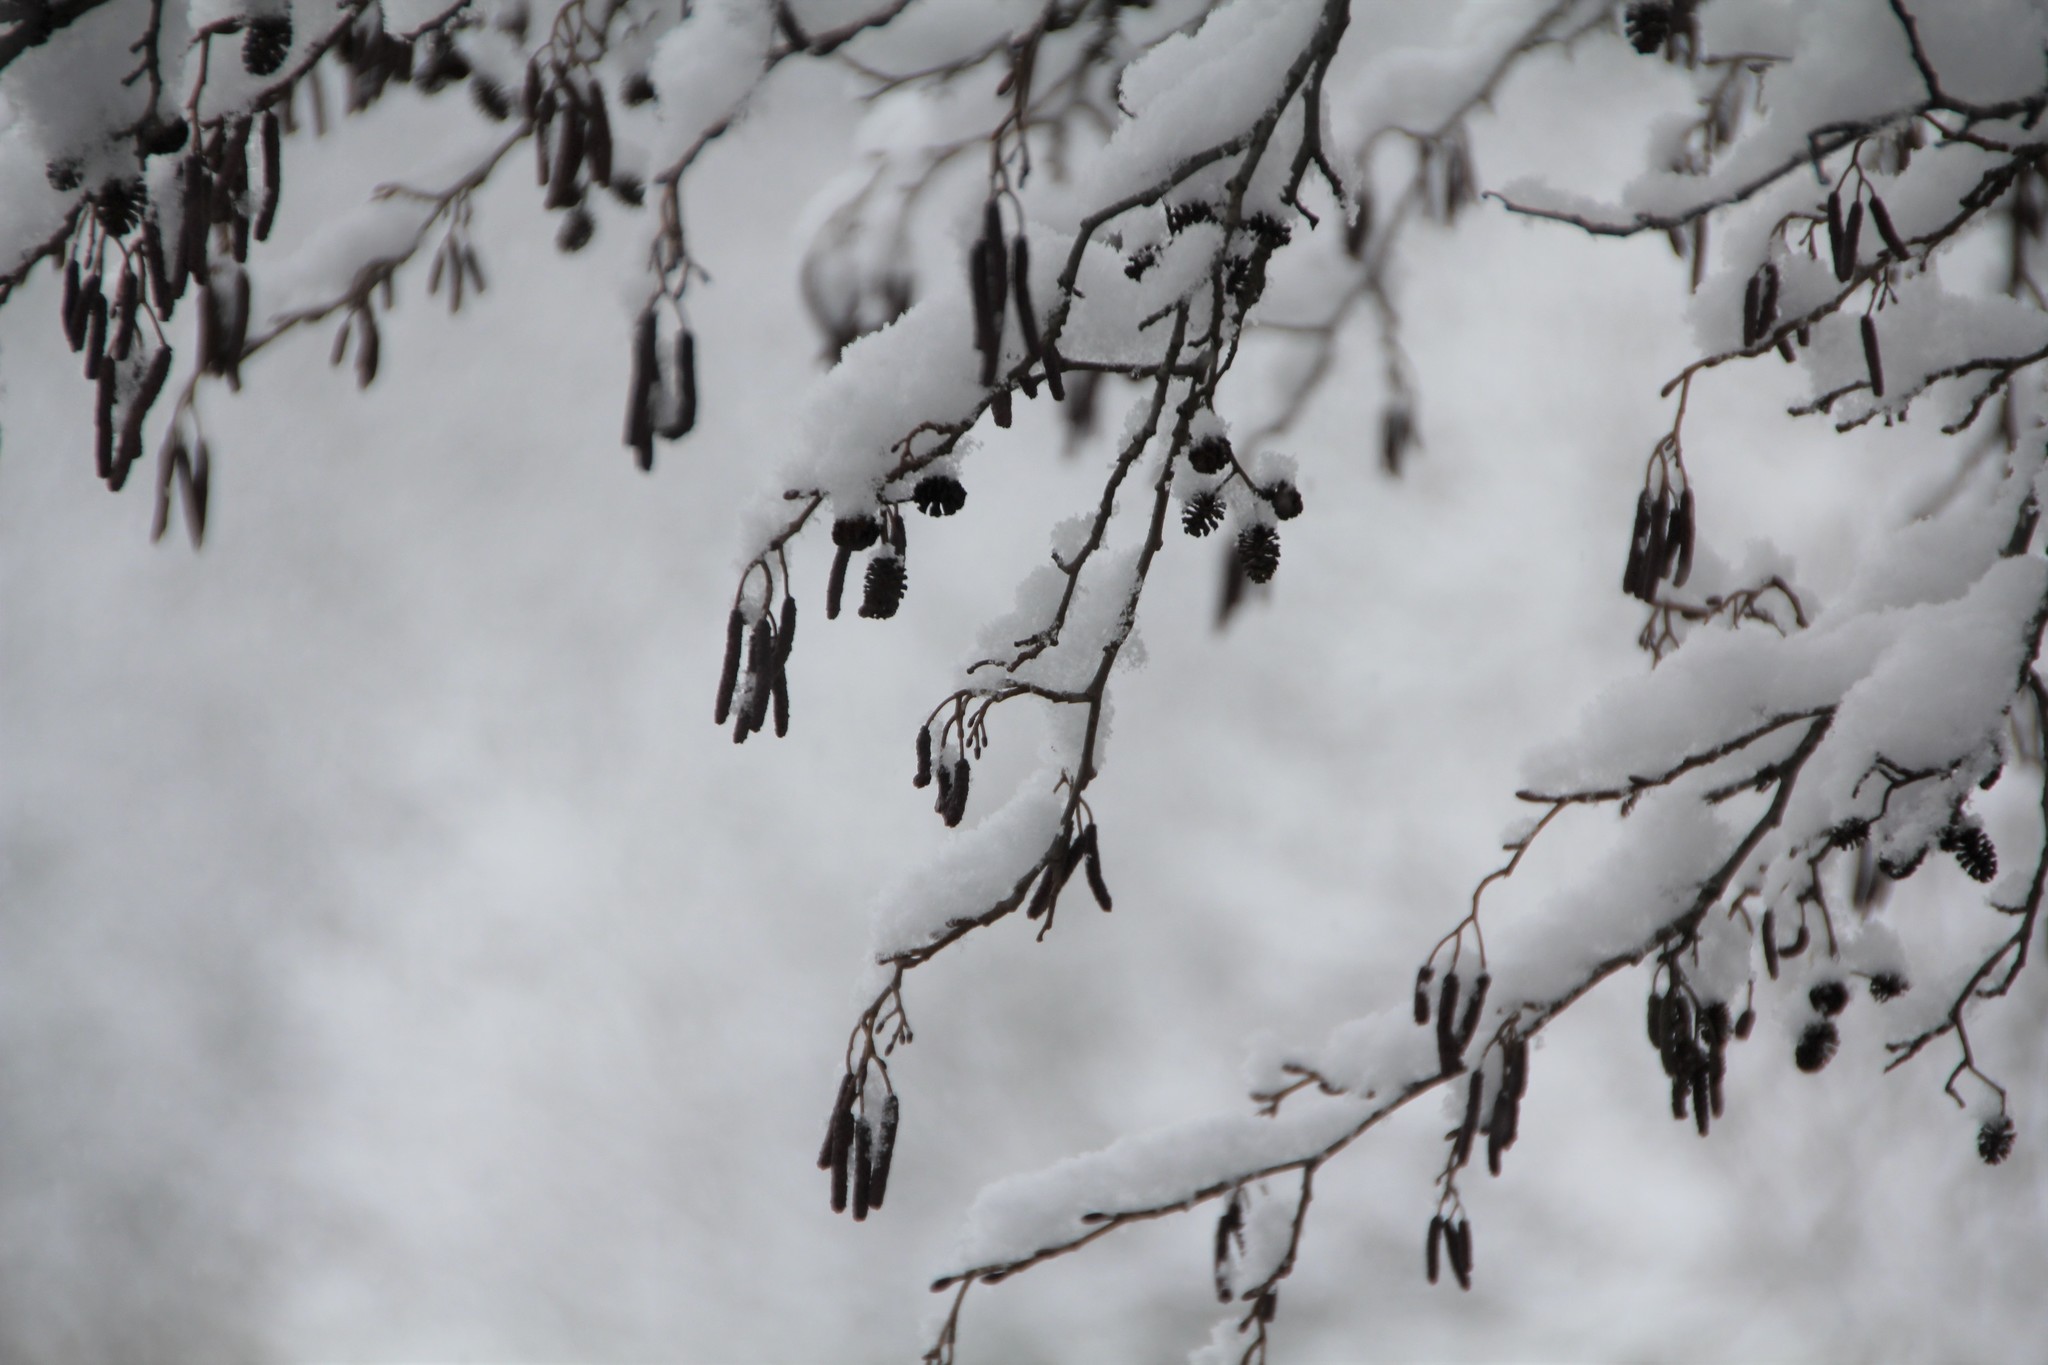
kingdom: Plantae
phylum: Tracheophyta
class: Magnoliopsida
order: Fagales
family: Betulaceae
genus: Alnus
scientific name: Alnus glutinosa
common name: Black alder
